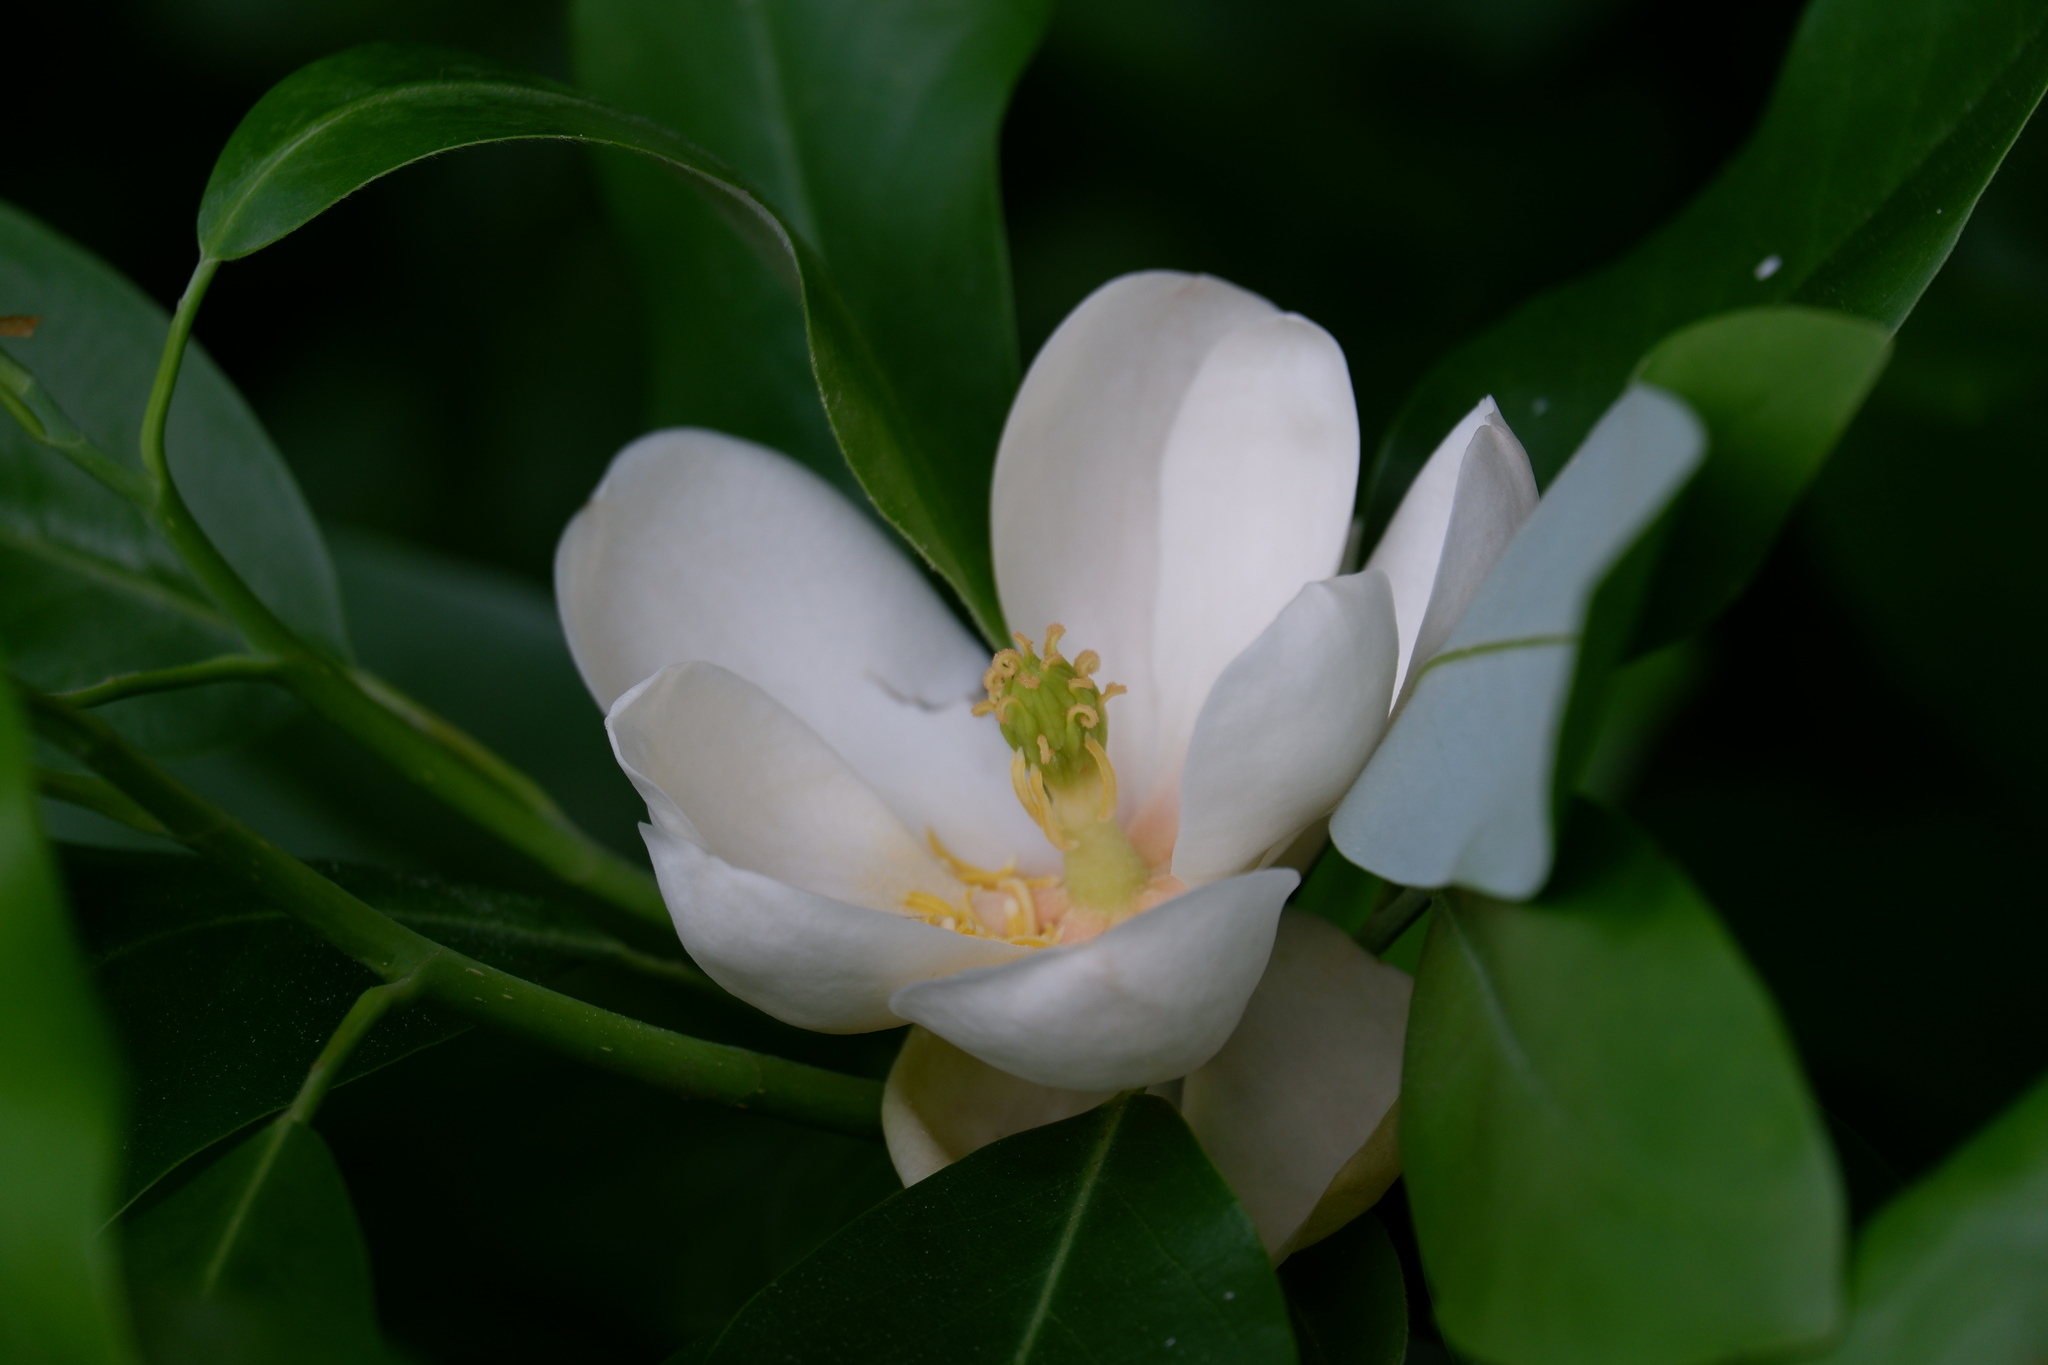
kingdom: Plantae
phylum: Tracheophyta
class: Magnoliopsida
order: Magnoliales
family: Magnoliaceae
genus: Magnolia
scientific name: Magnolia virginiana
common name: Swamp bay
